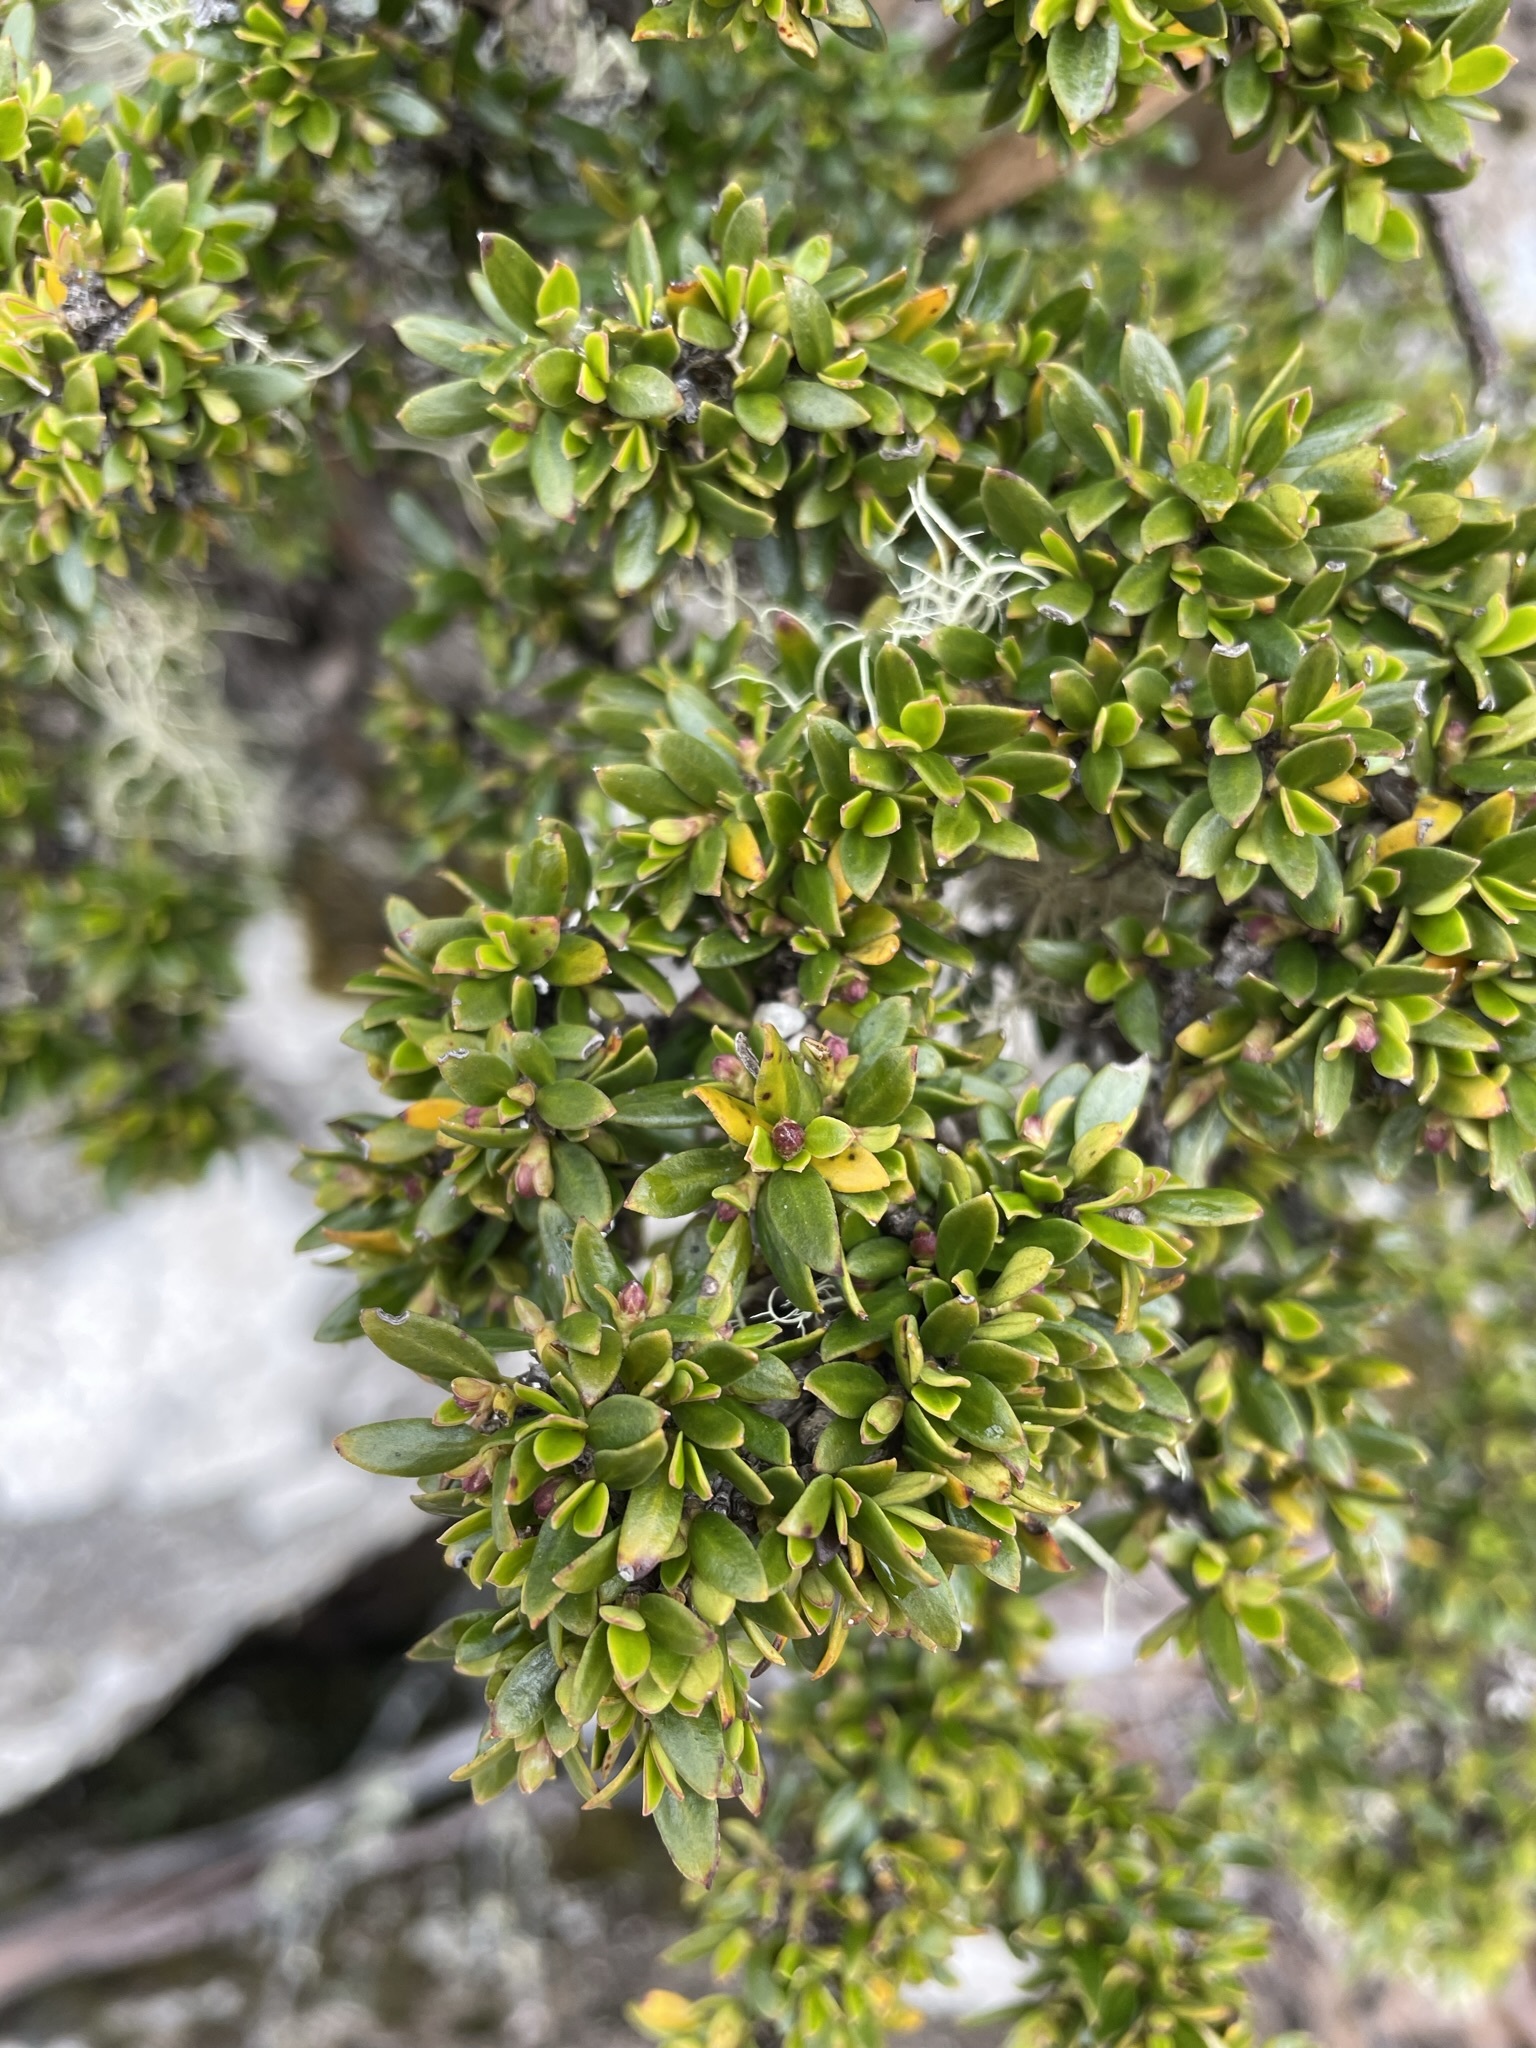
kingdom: Plantae
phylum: Tracheophyta
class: Magnoliopsida
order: Gentianales
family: Rubiaceae
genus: Coprosma
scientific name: Coprosma nitida
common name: Shining coprosma
